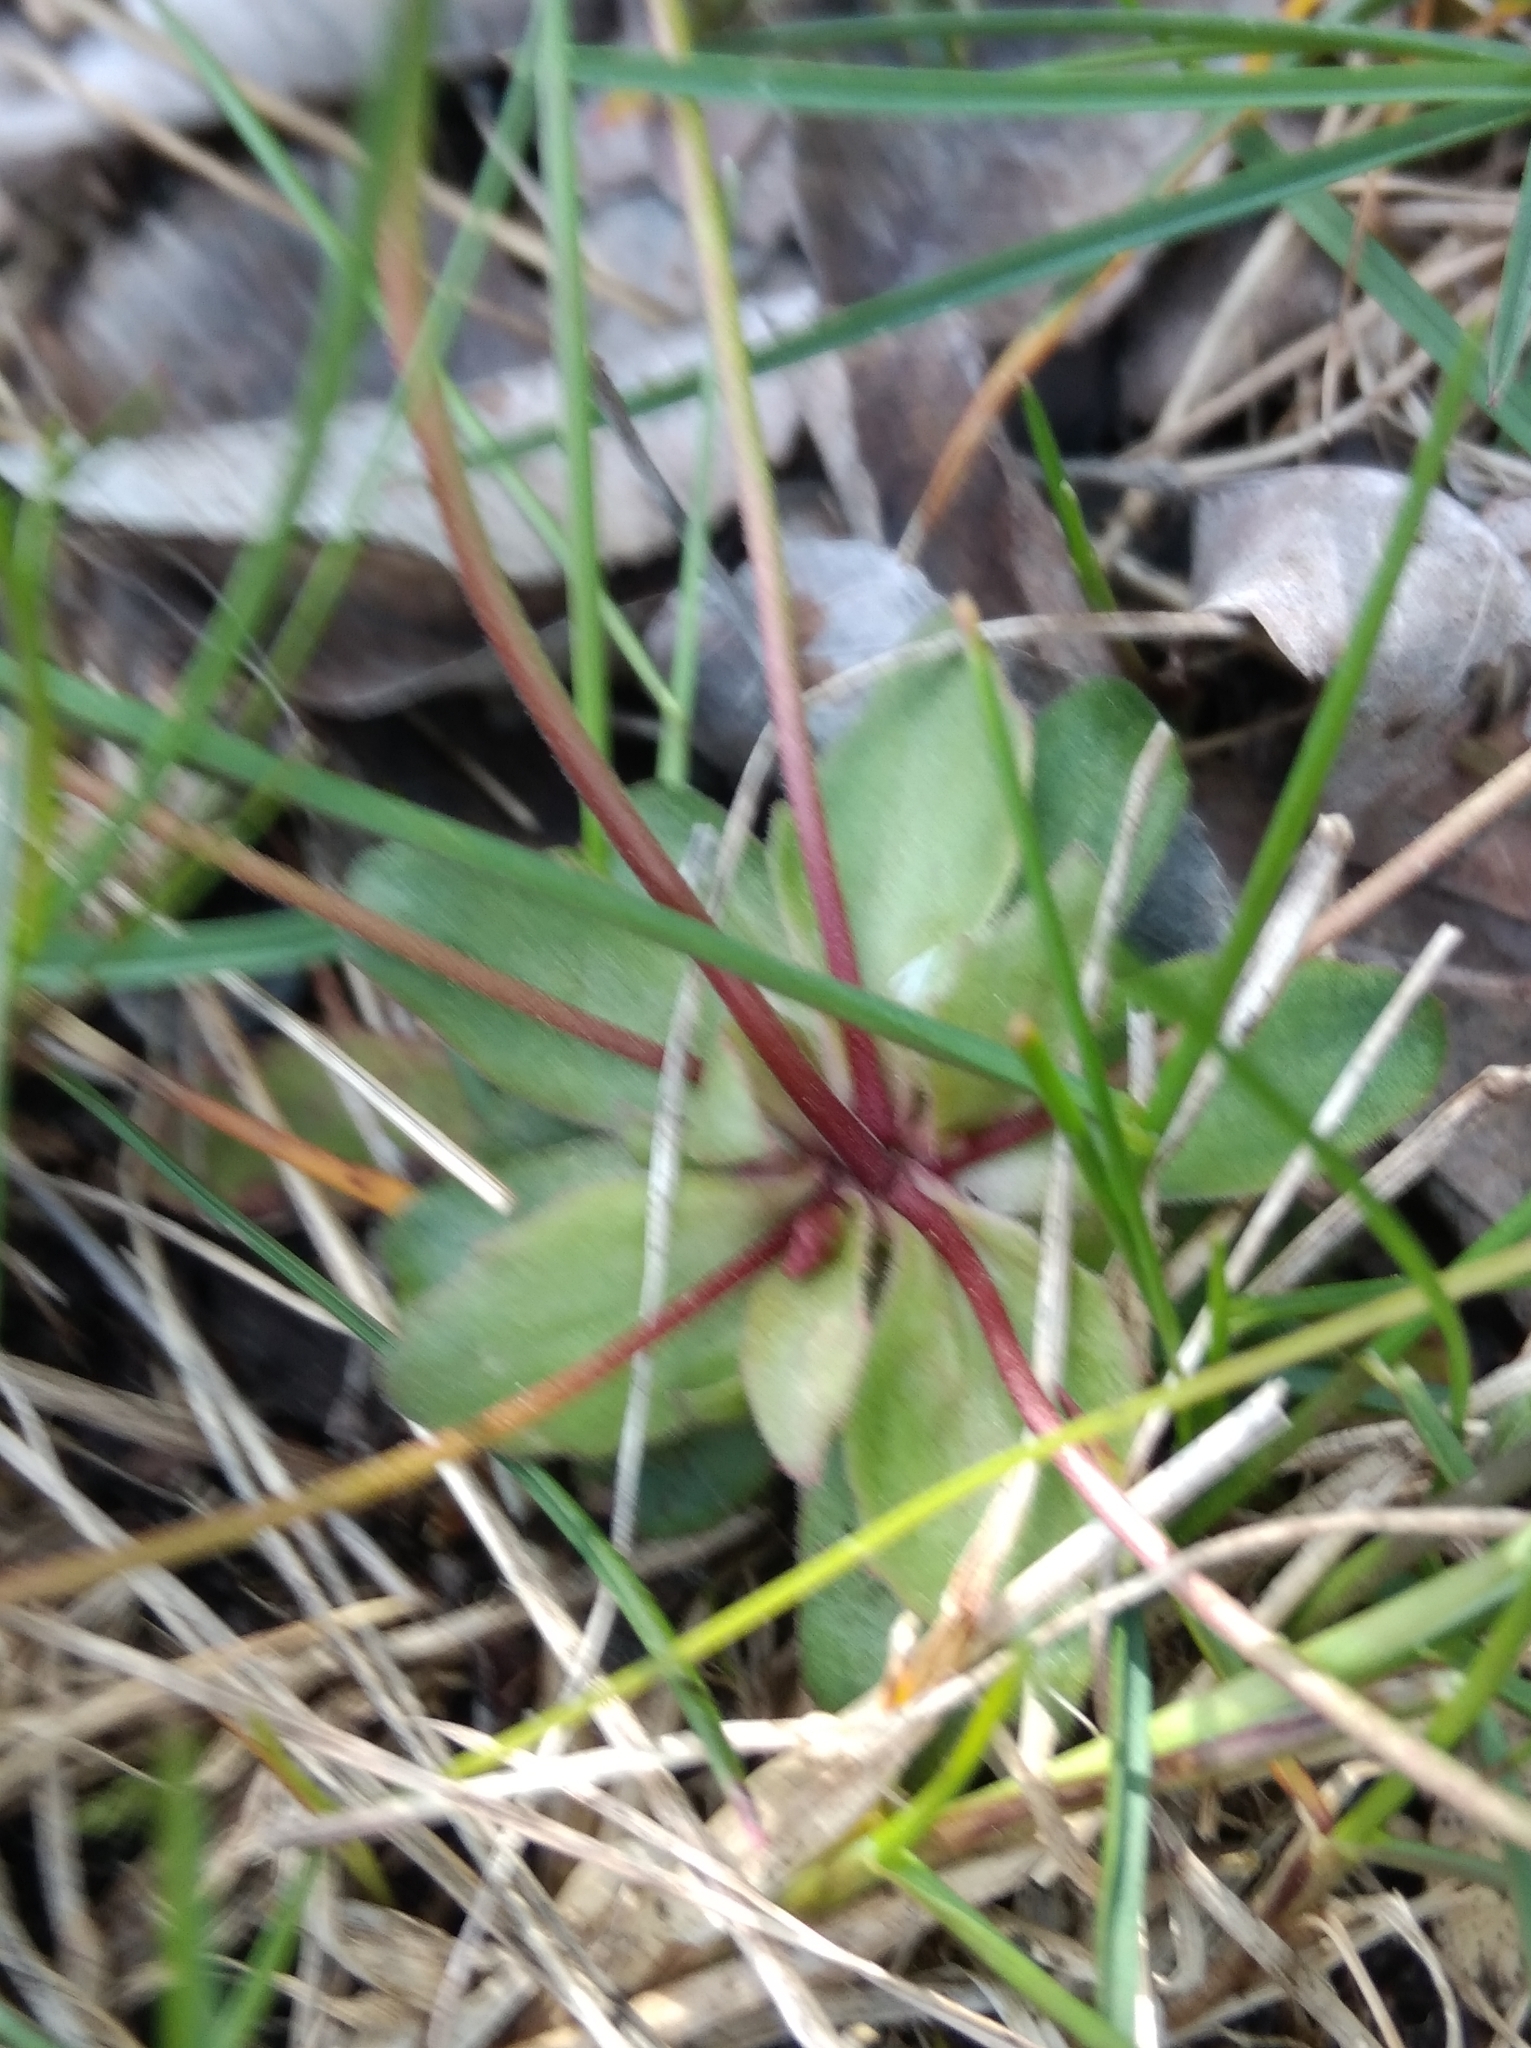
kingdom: Plantae
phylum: Tracheophyta
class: Magnoliopsida
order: Ericales
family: Primulaceae
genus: Androsace
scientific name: Androsace chaixii
